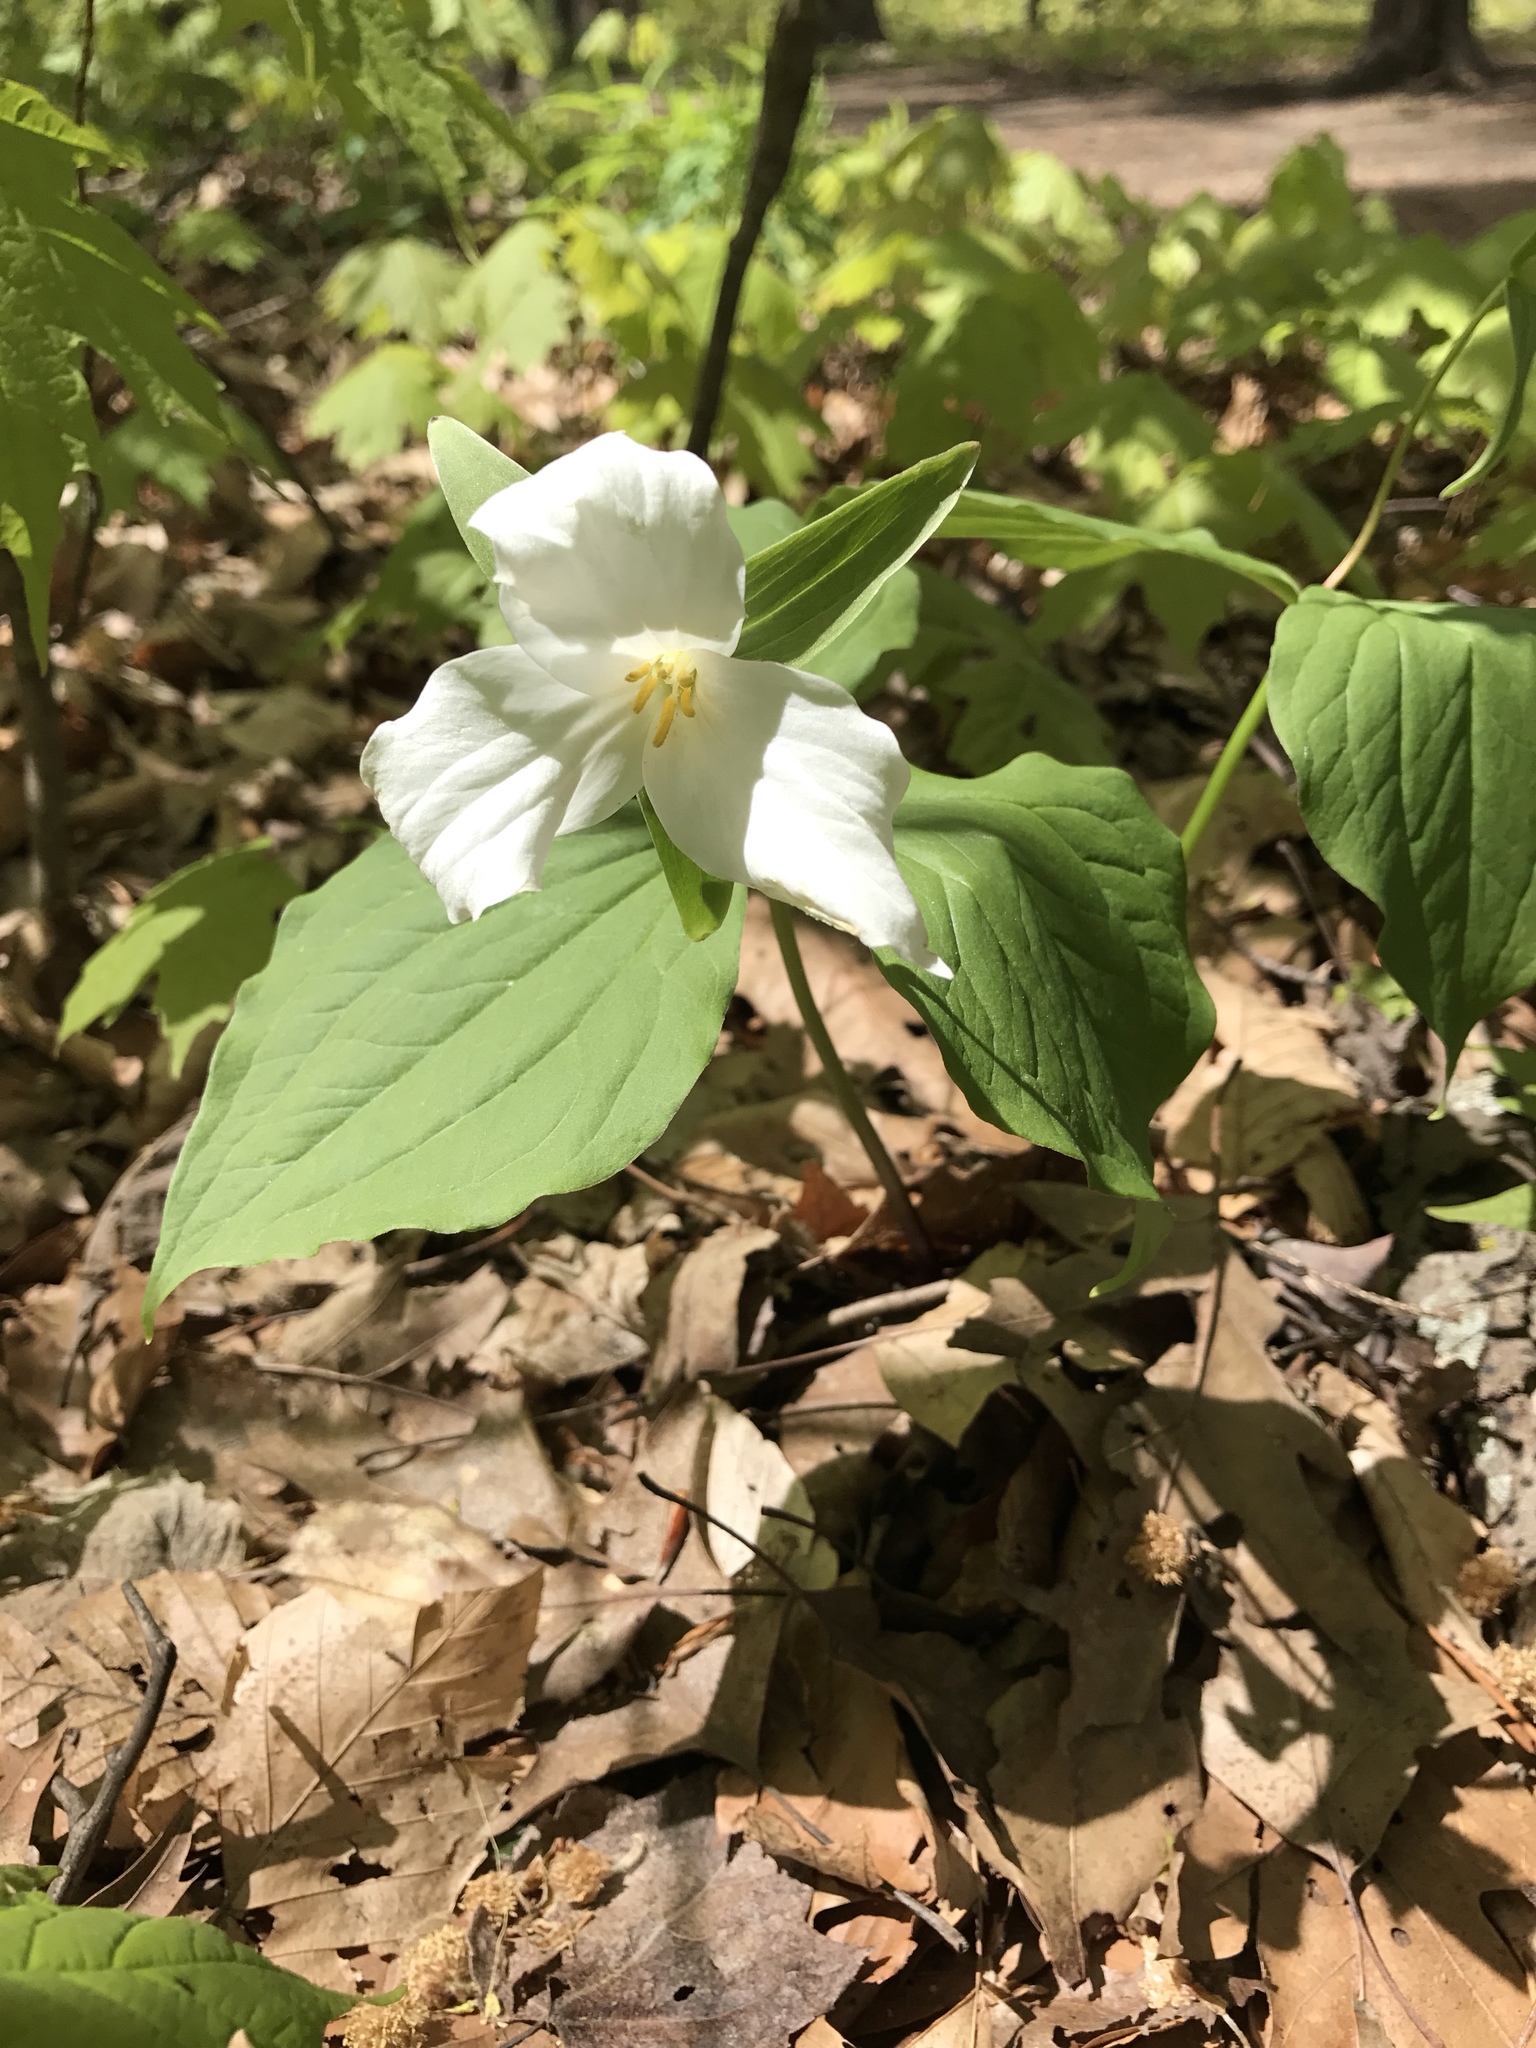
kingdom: Plantae
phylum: Tracheophyta
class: Liliopsida
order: Liliales
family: Melanthiaceae
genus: Trillium
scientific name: Trillium grandiflorum
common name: Great white trillium
